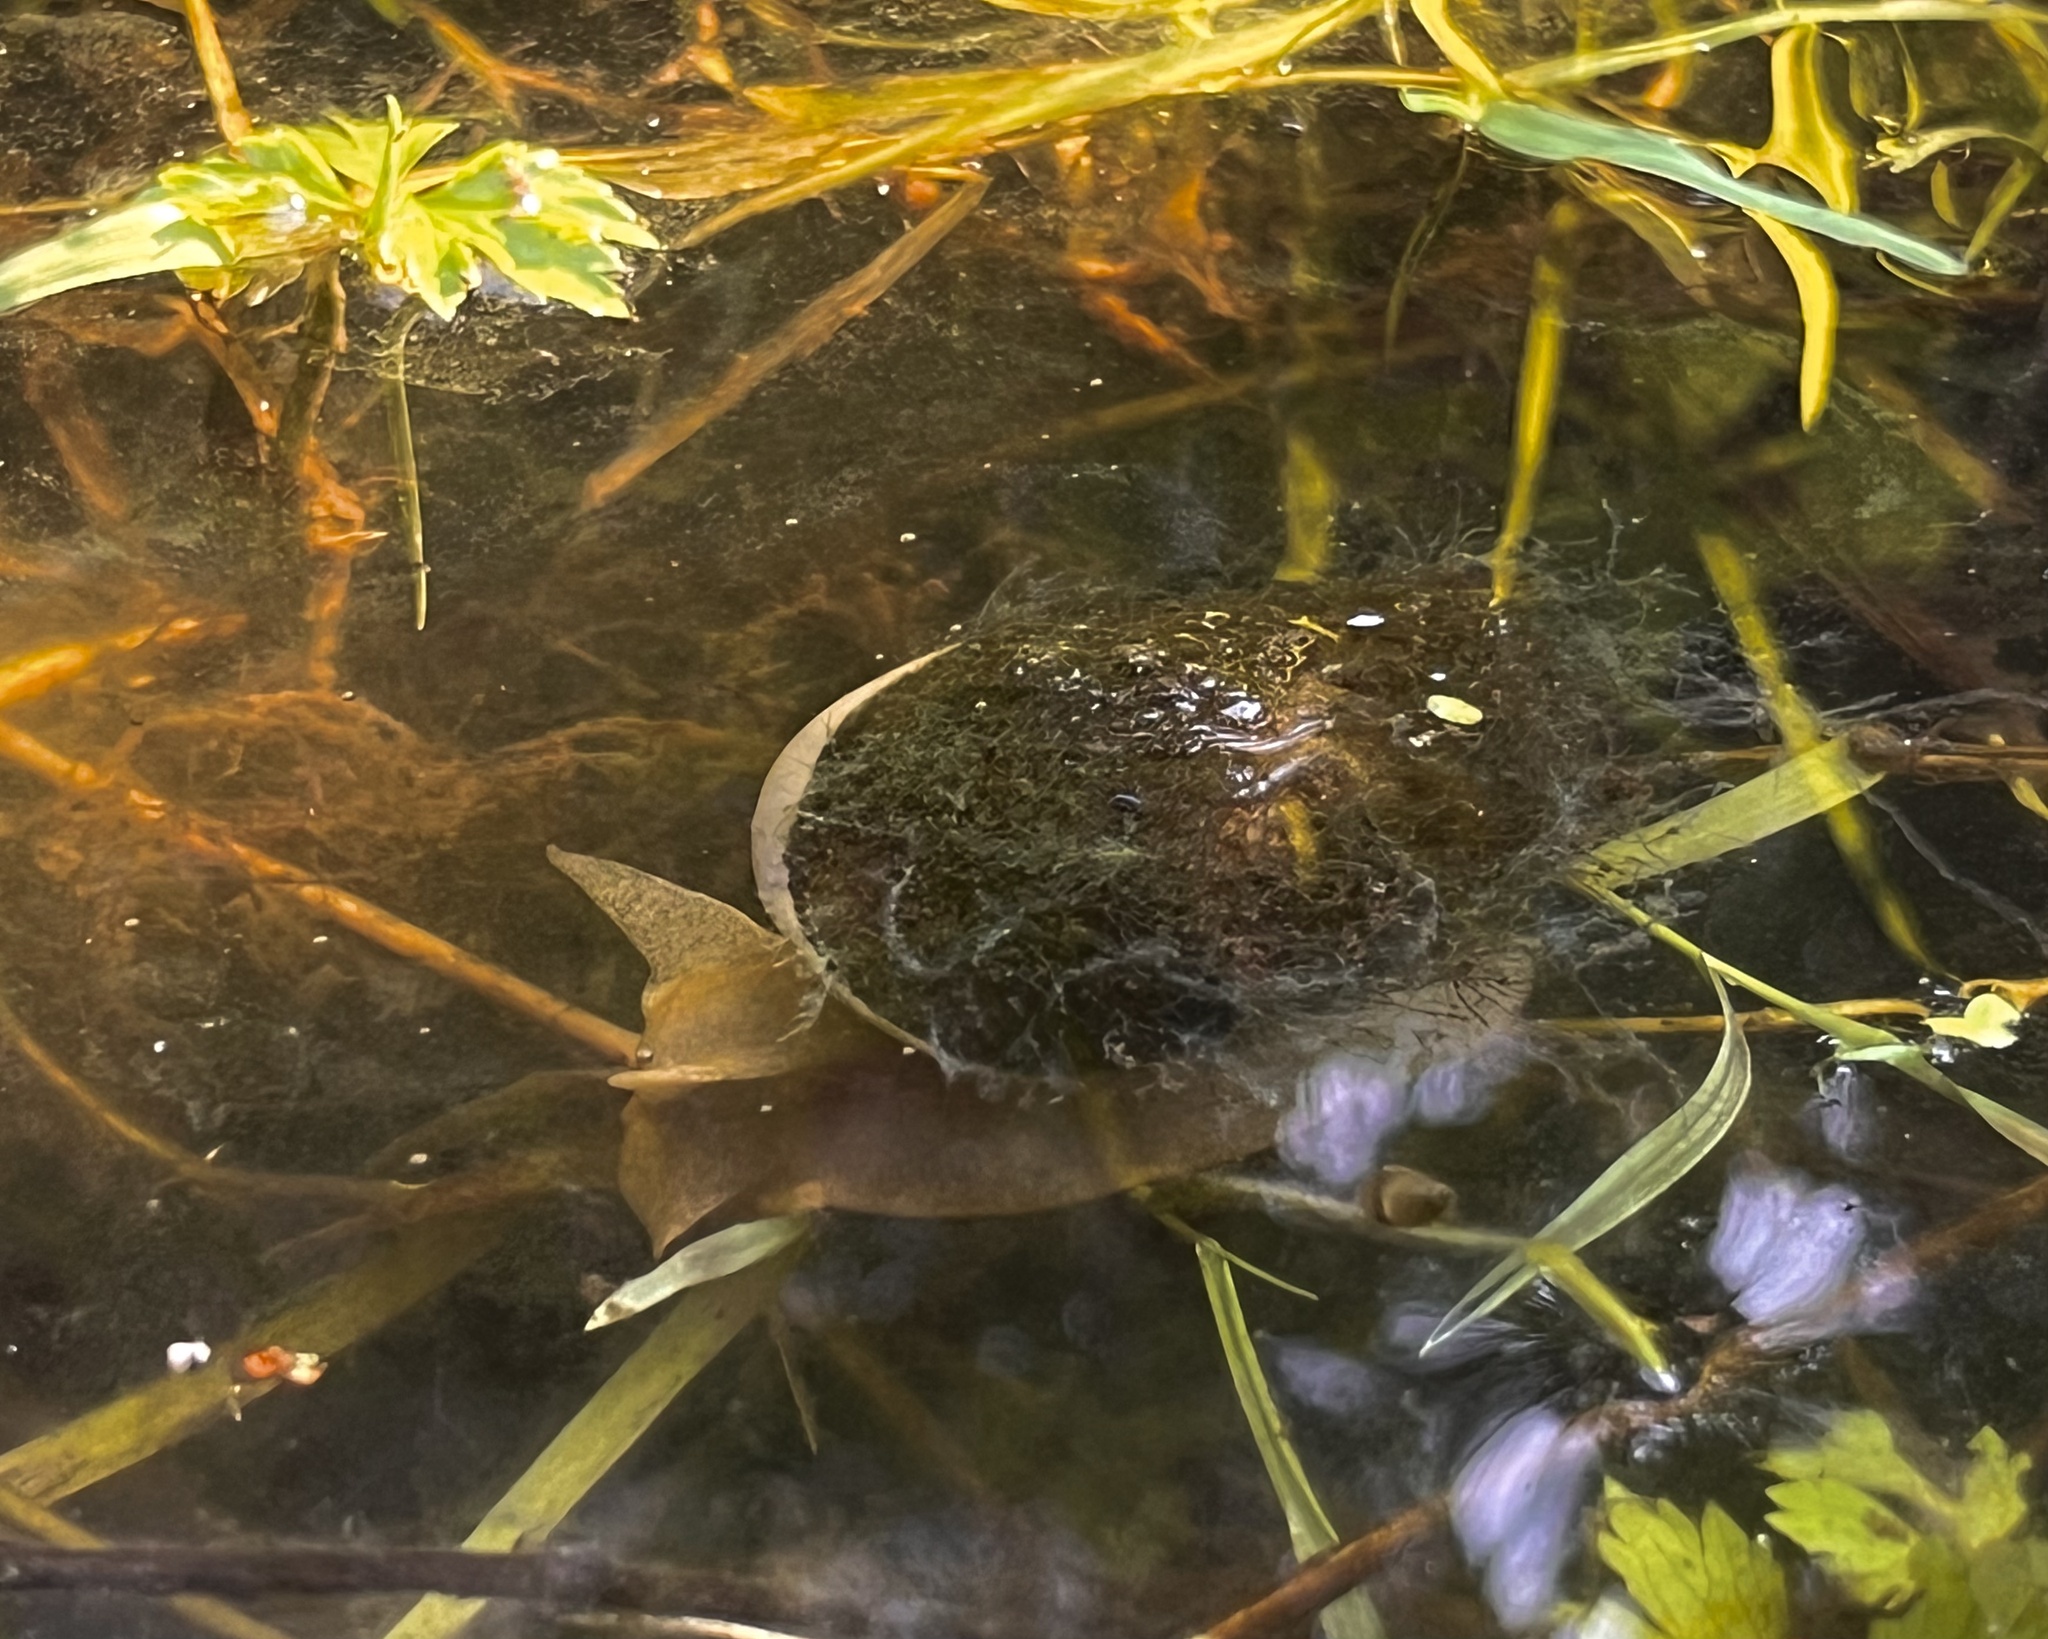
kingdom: Animalia
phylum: Mollusca
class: Gastropoda
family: Lymnaeidae
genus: Lymnaea
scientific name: Lymnaea stagnalis
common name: Great pond snail
